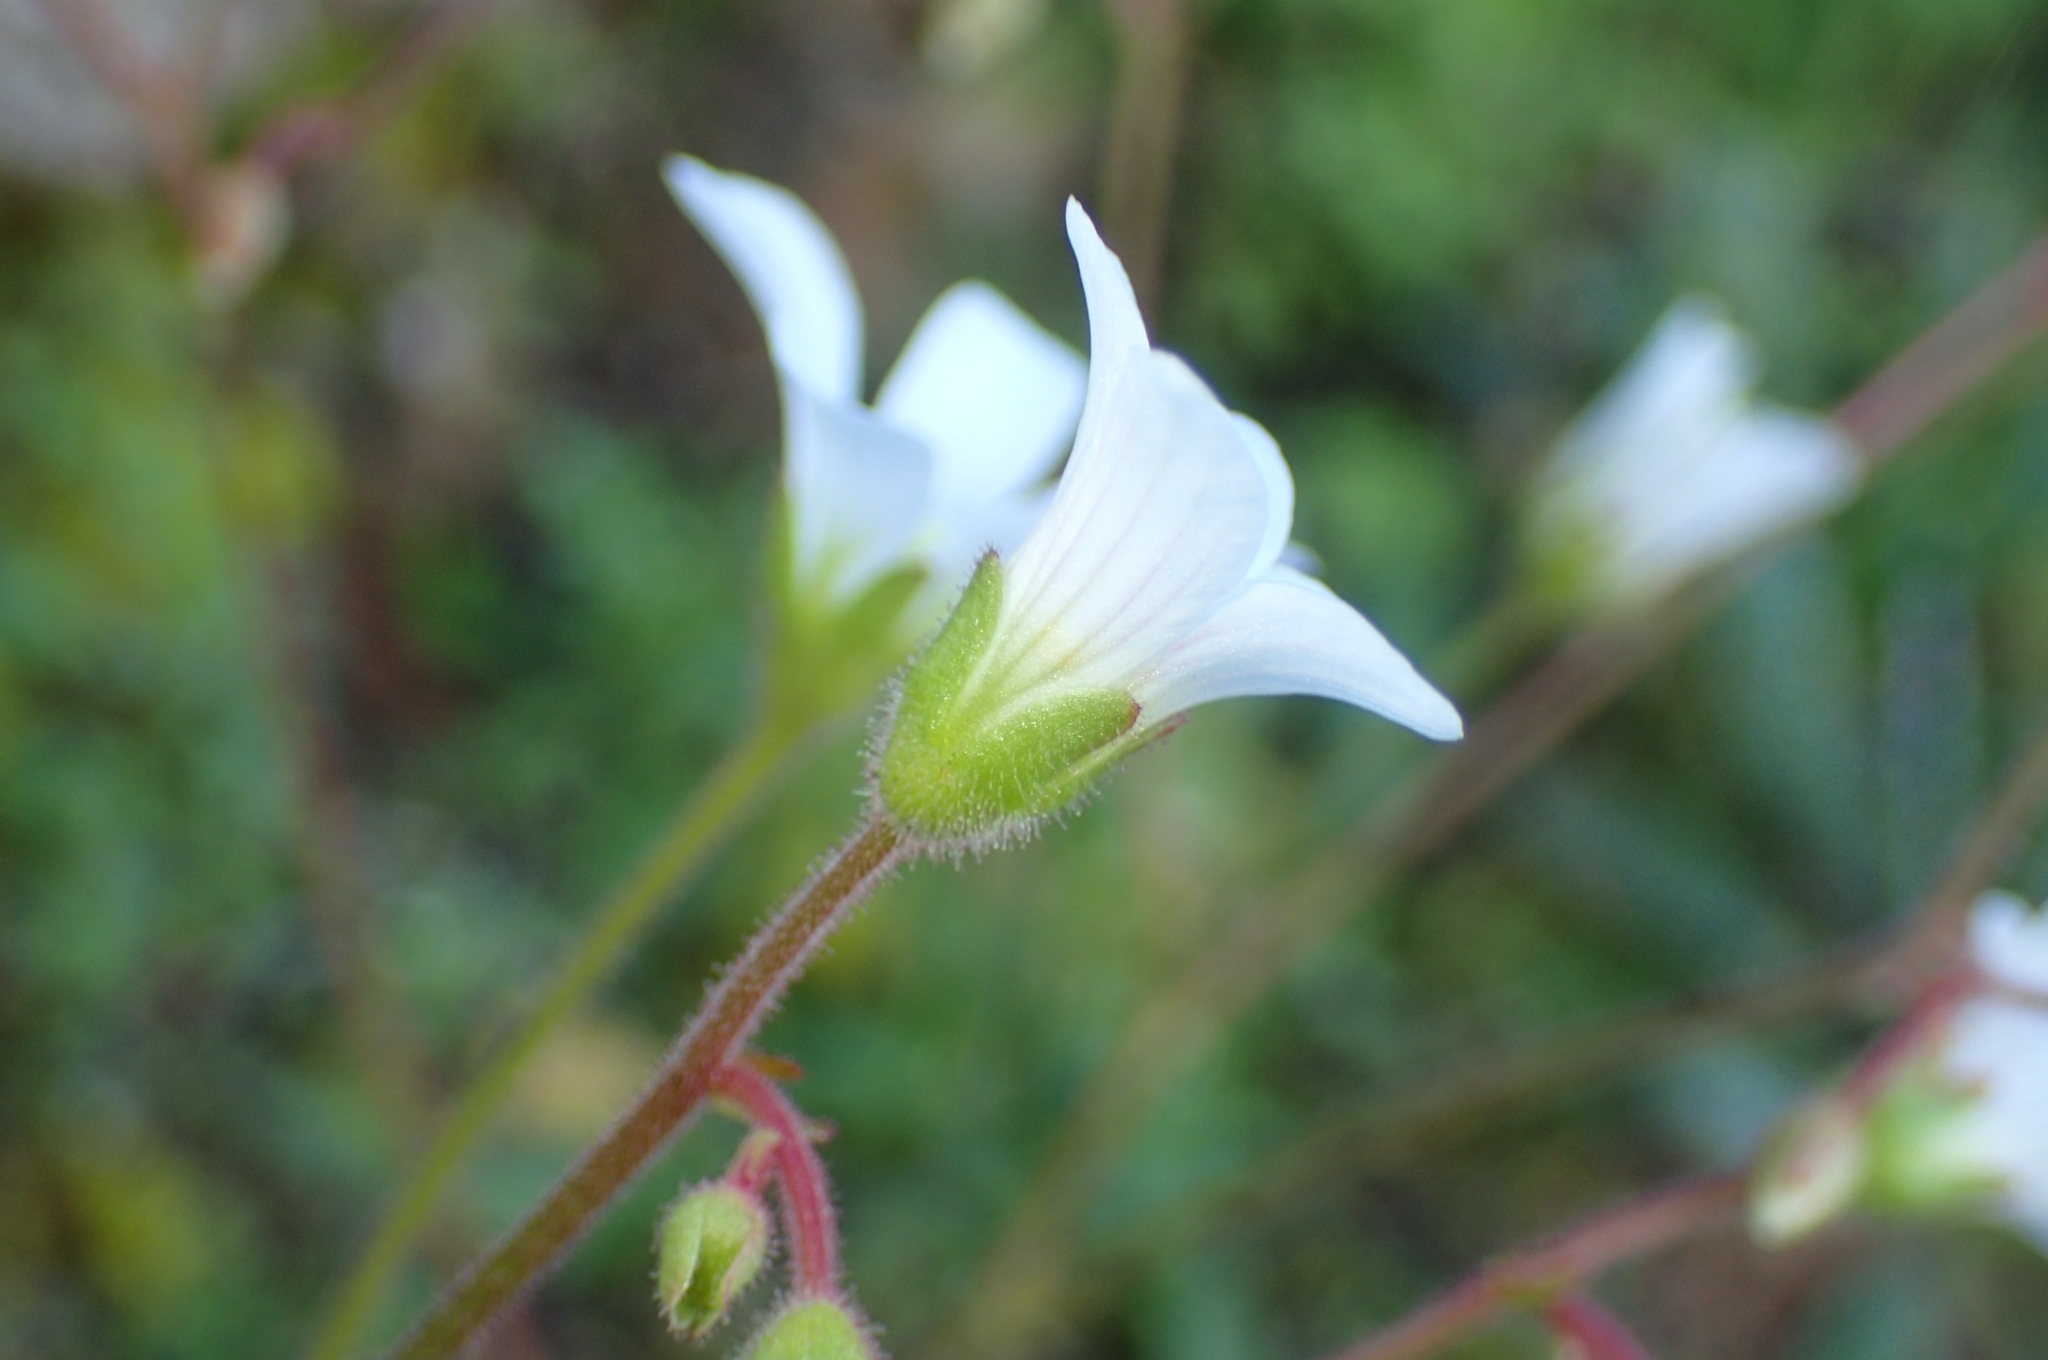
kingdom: Plantae
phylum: Tracheophyta
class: Magnoliopsida
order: Saxifragales
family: Saxifragaceae
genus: Saxifraga
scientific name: Saxifraga granulata
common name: Meadow saxifrage
